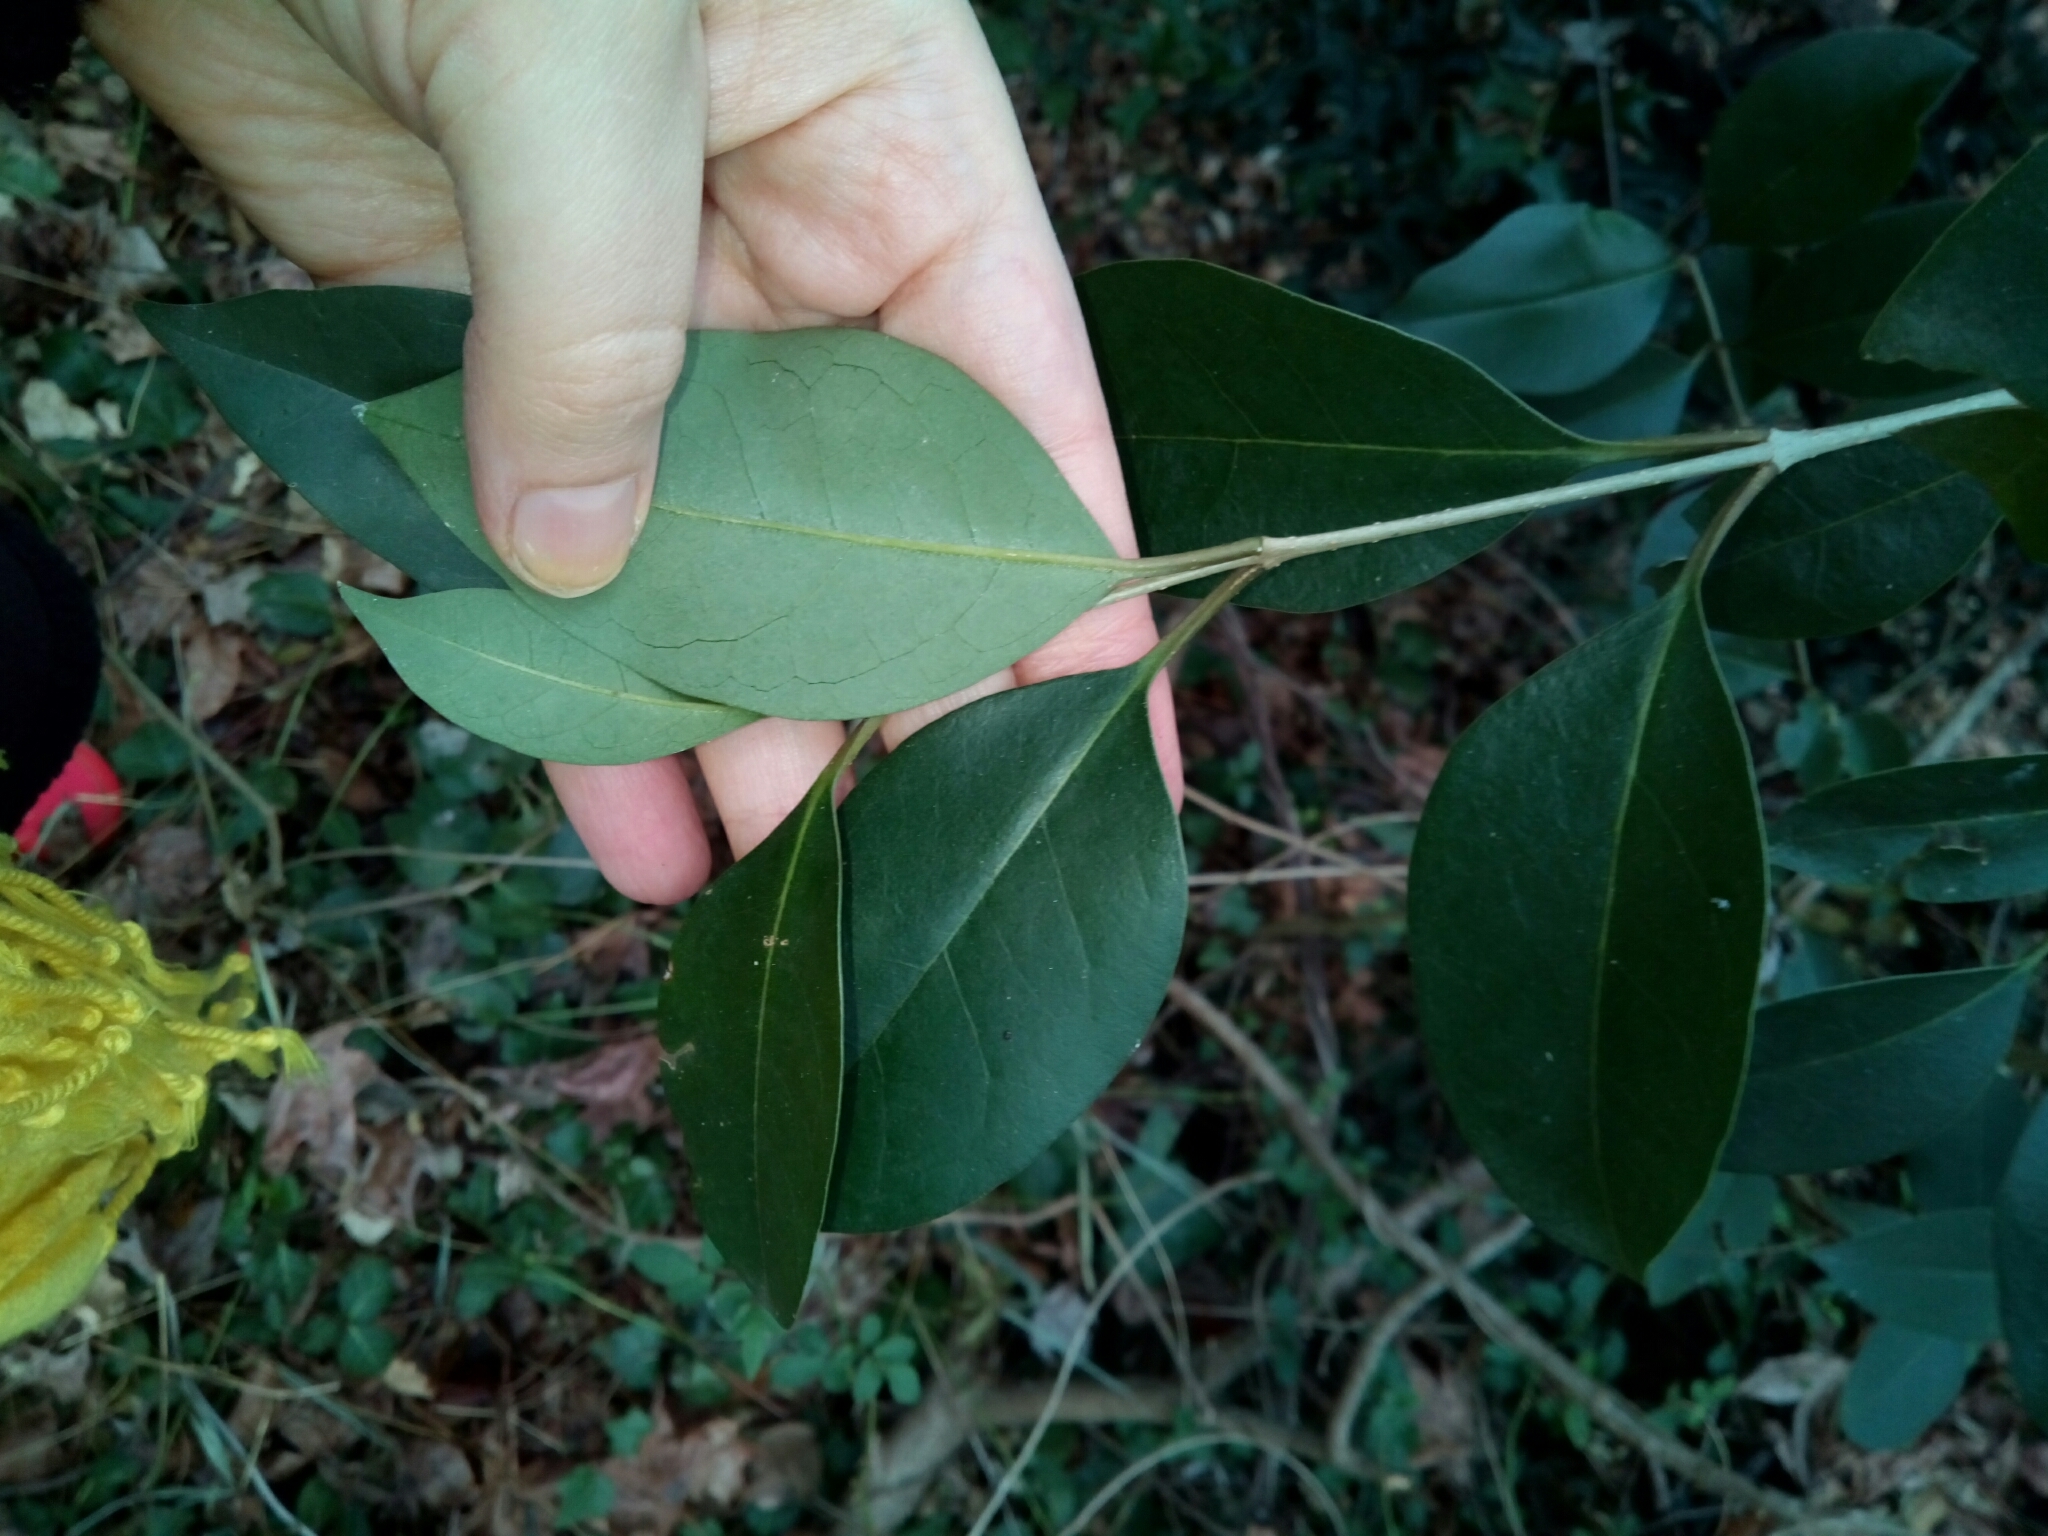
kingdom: Plantae
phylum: Tracheophyta
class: Magnoliopsida
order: Lamiales
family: Oleaceae
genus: Ligustrum
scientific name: Ligustrum lucidum
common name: Glossy privet
